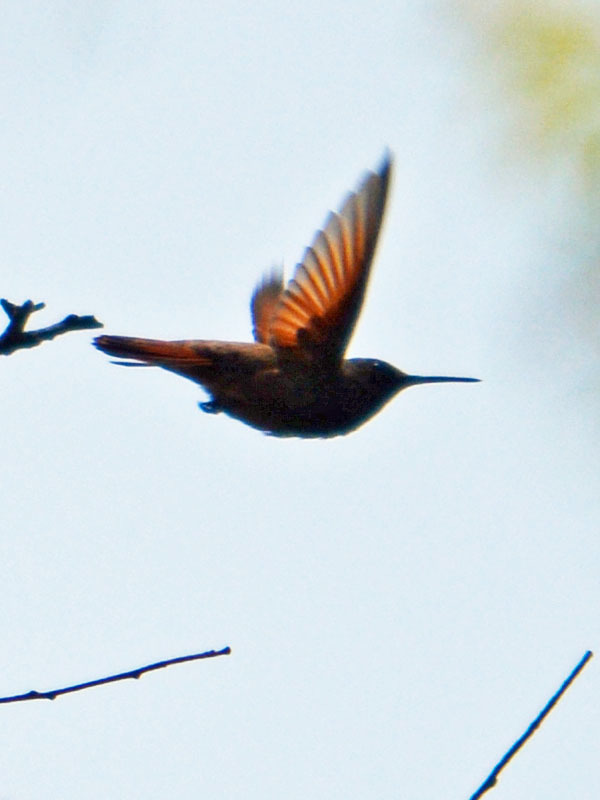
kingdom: Animalia
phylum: Chordata
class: Aves
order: Apodiformes
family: Trochilidae
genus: Saucerottia
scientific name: Saucerottia beryllina
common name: Berylline hummingbird
